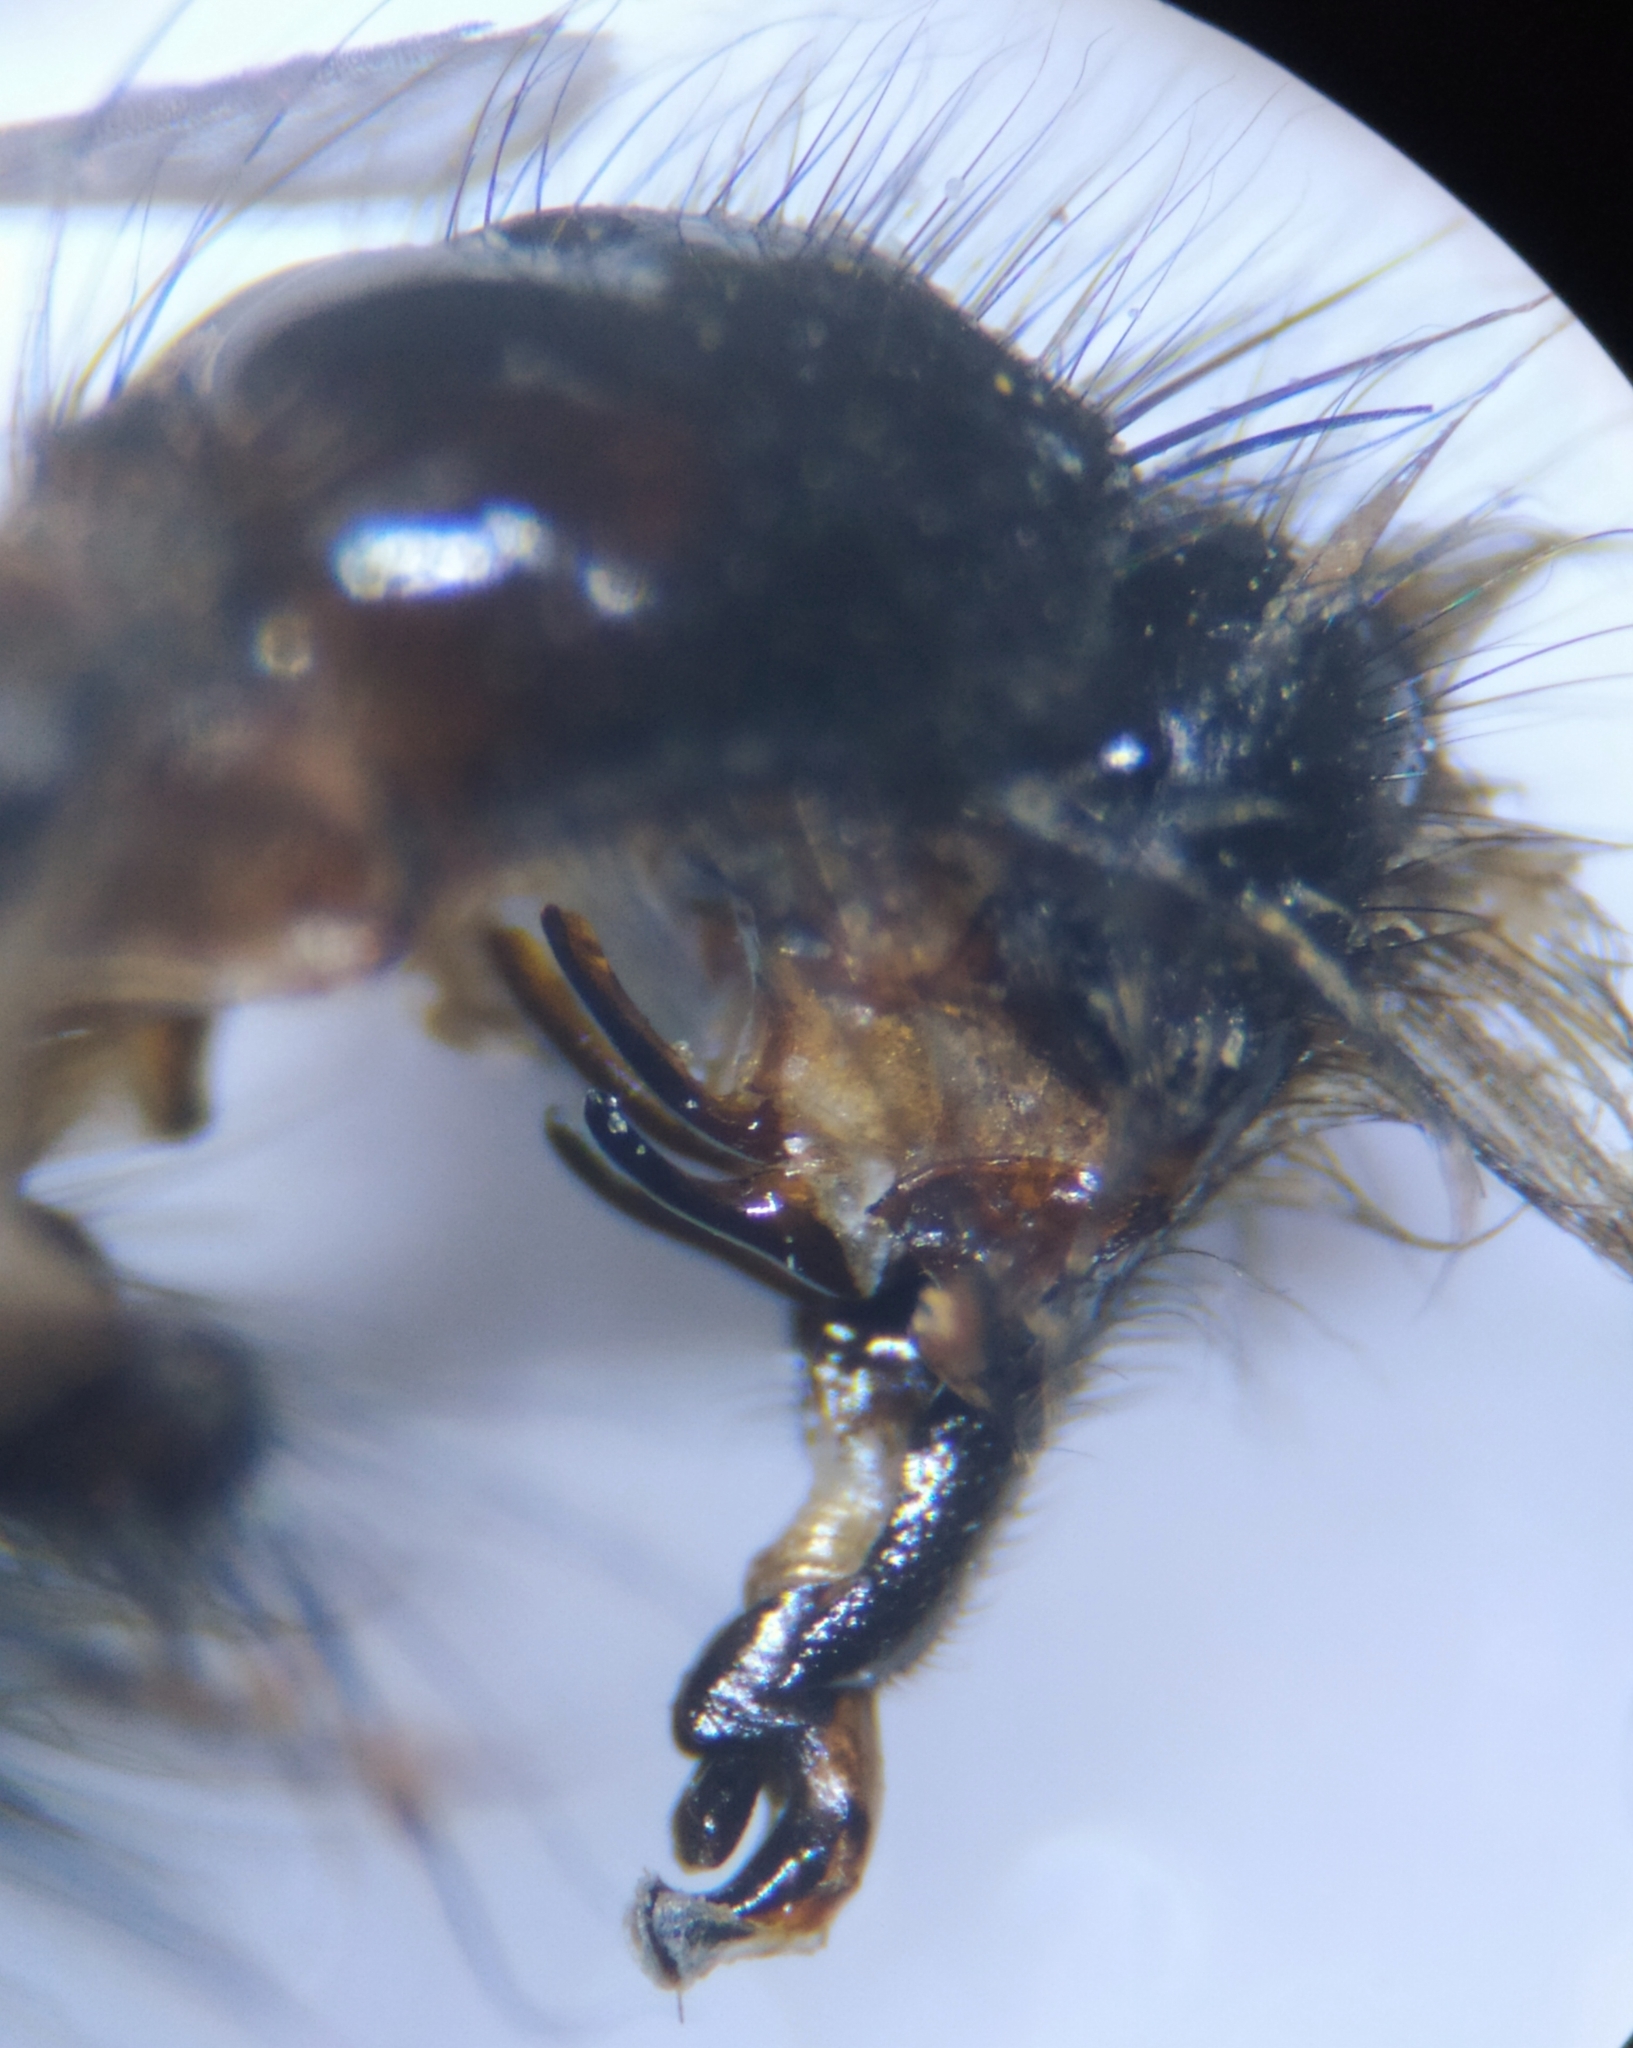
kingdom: Animalia
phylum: Arthropoda
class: Insecta
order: Diptera
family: Sarcophagidae
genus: Sarcophaga
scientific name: Sarcophaga variegata
